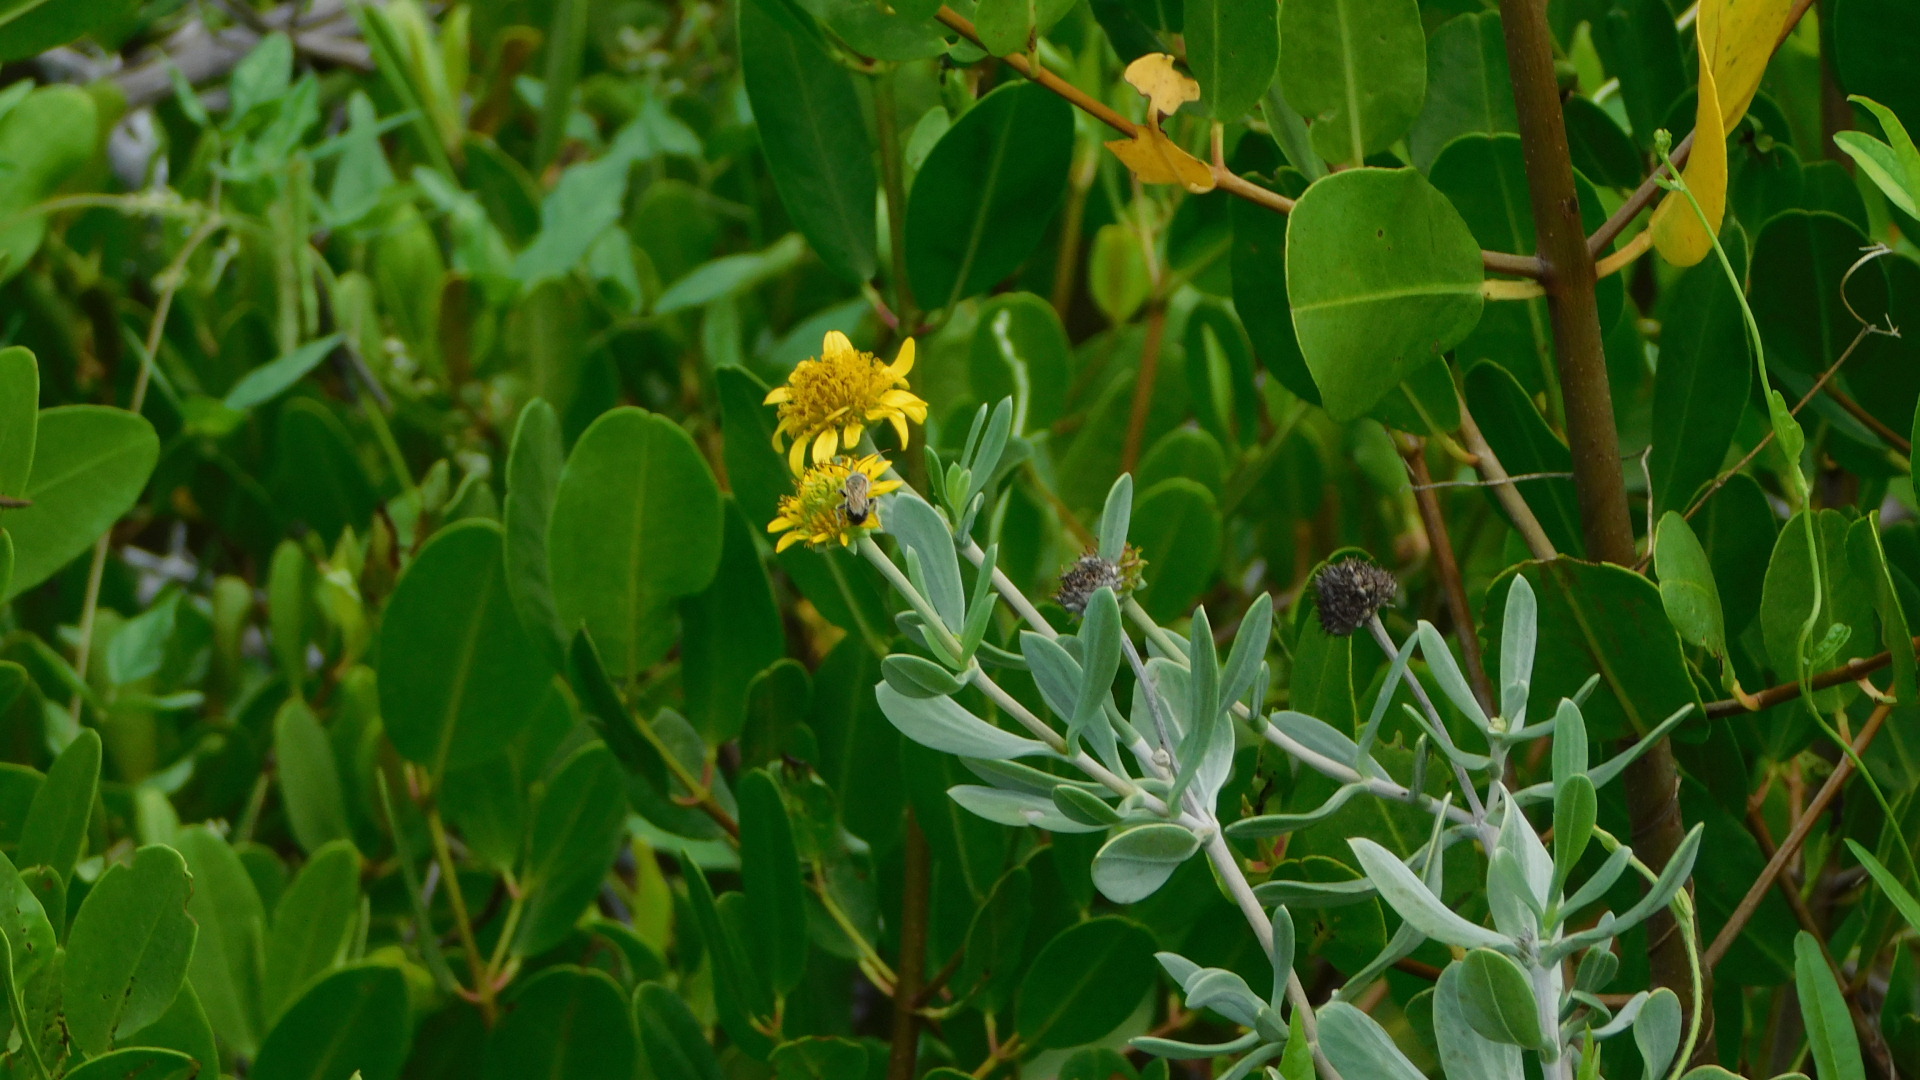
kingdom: Plantae
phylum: Tracheophyta
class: Magnoliopsida
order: Asterales
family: Asteraceae
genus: Borrichia
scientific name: Borrichia frutescens
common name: Sea oxeye
